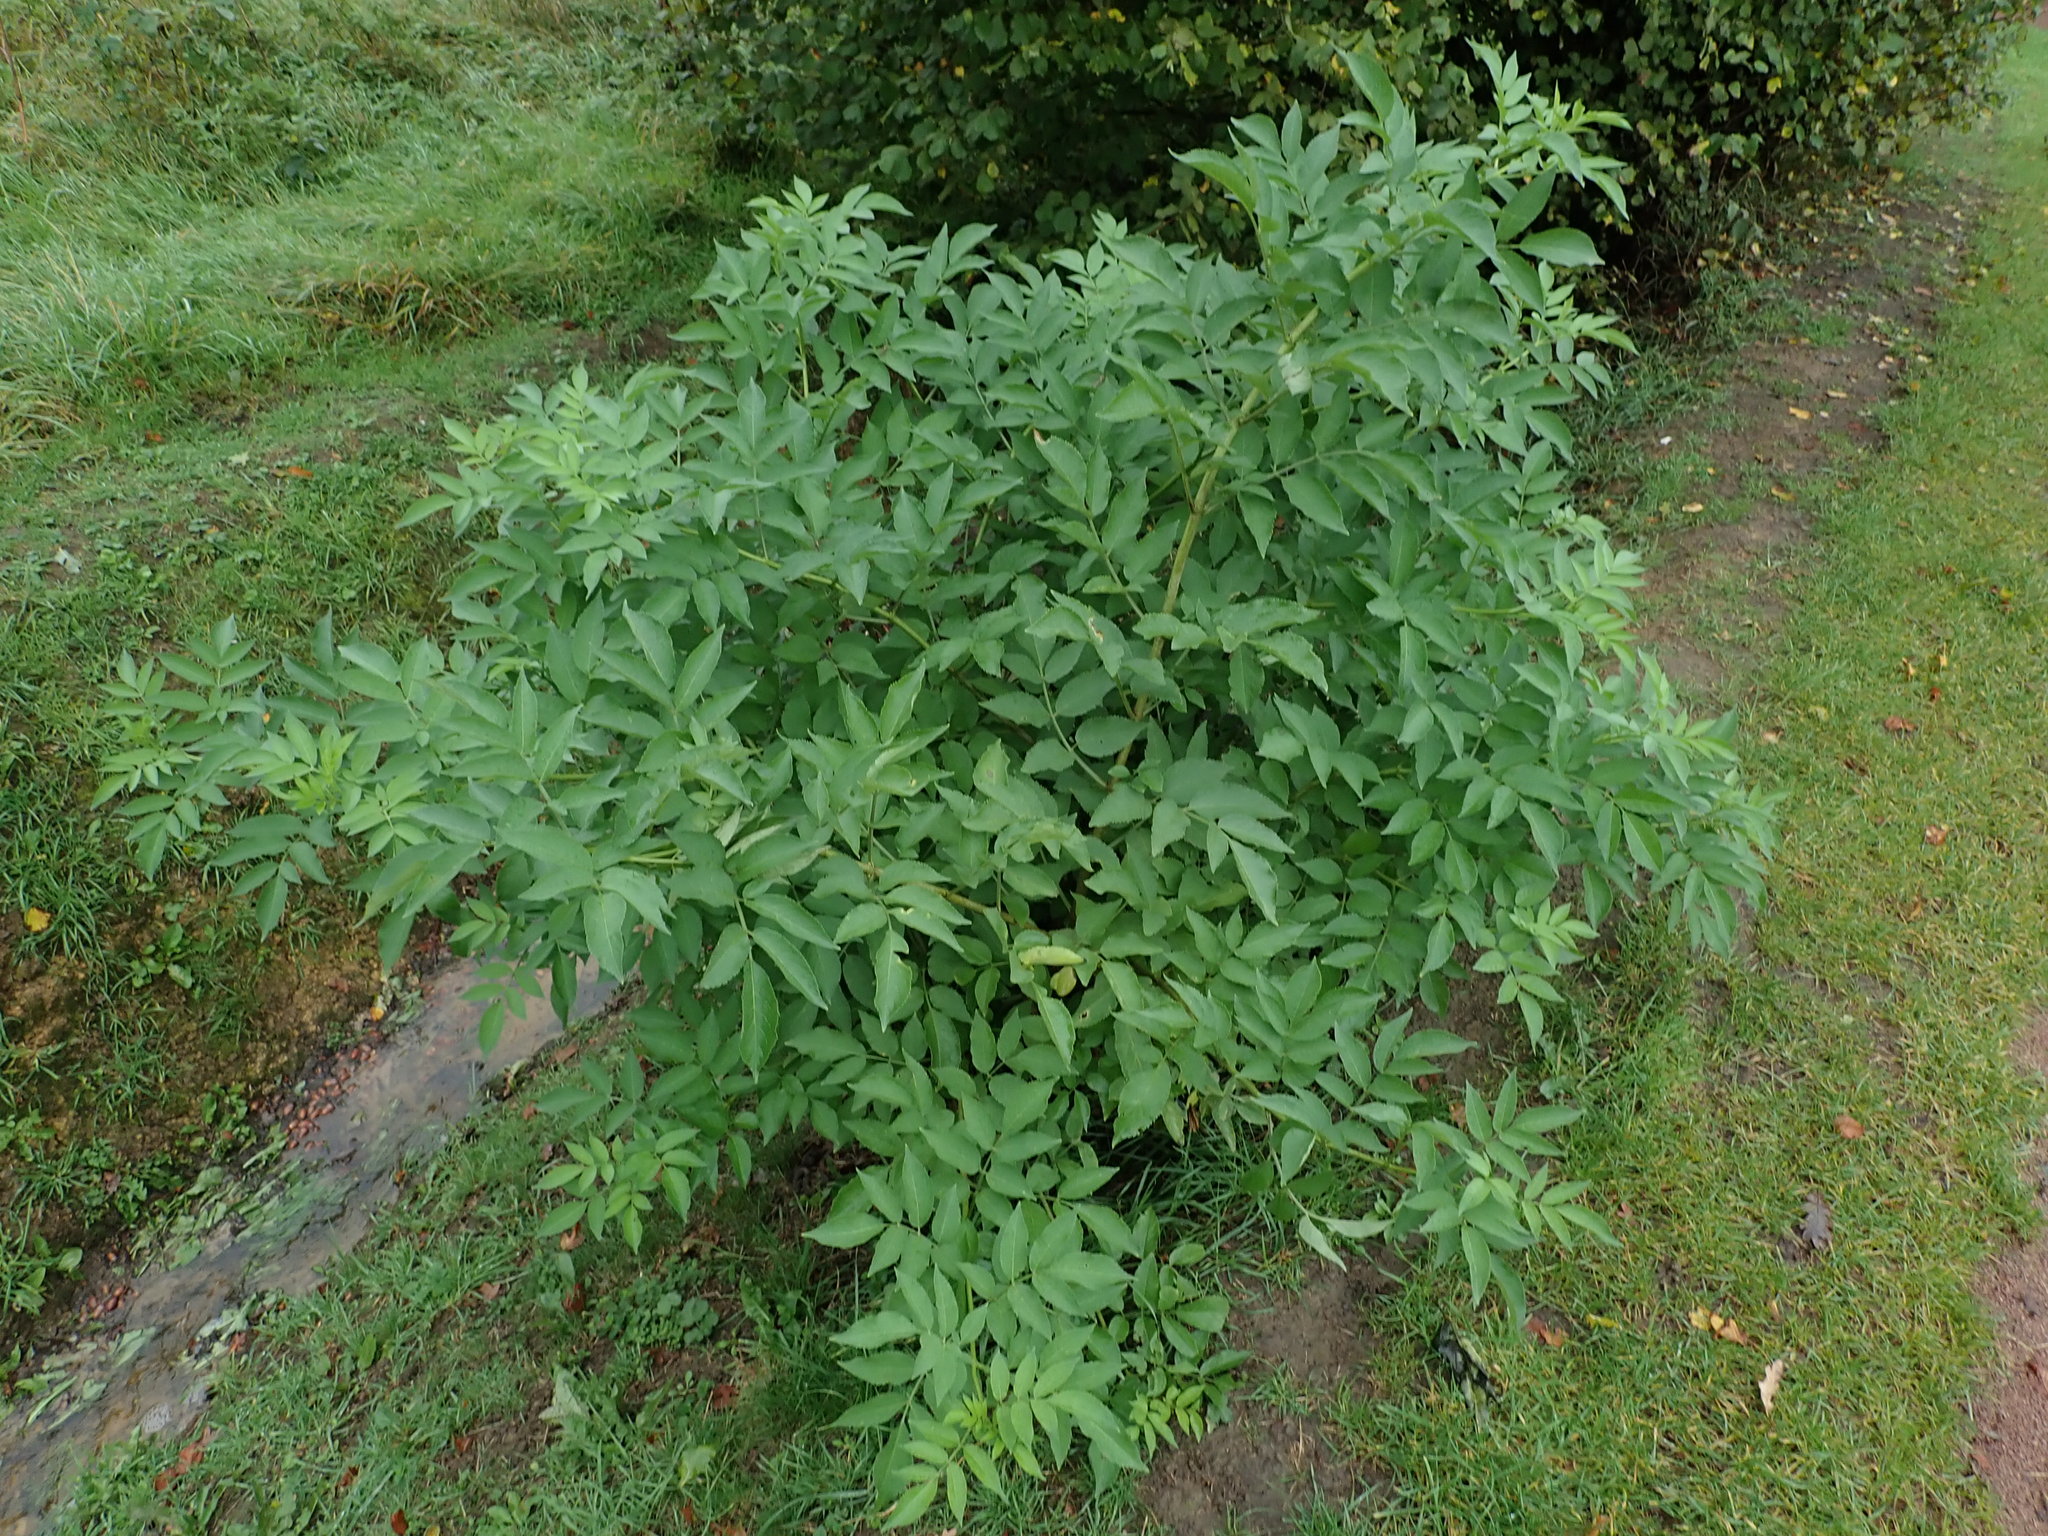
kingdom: Plantae
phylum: Tracheophyta
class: Magnoliopsida
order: Dipsacales
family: Viburnaceae
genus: Sambucus
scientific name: Sambucus nigra
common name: Elder
